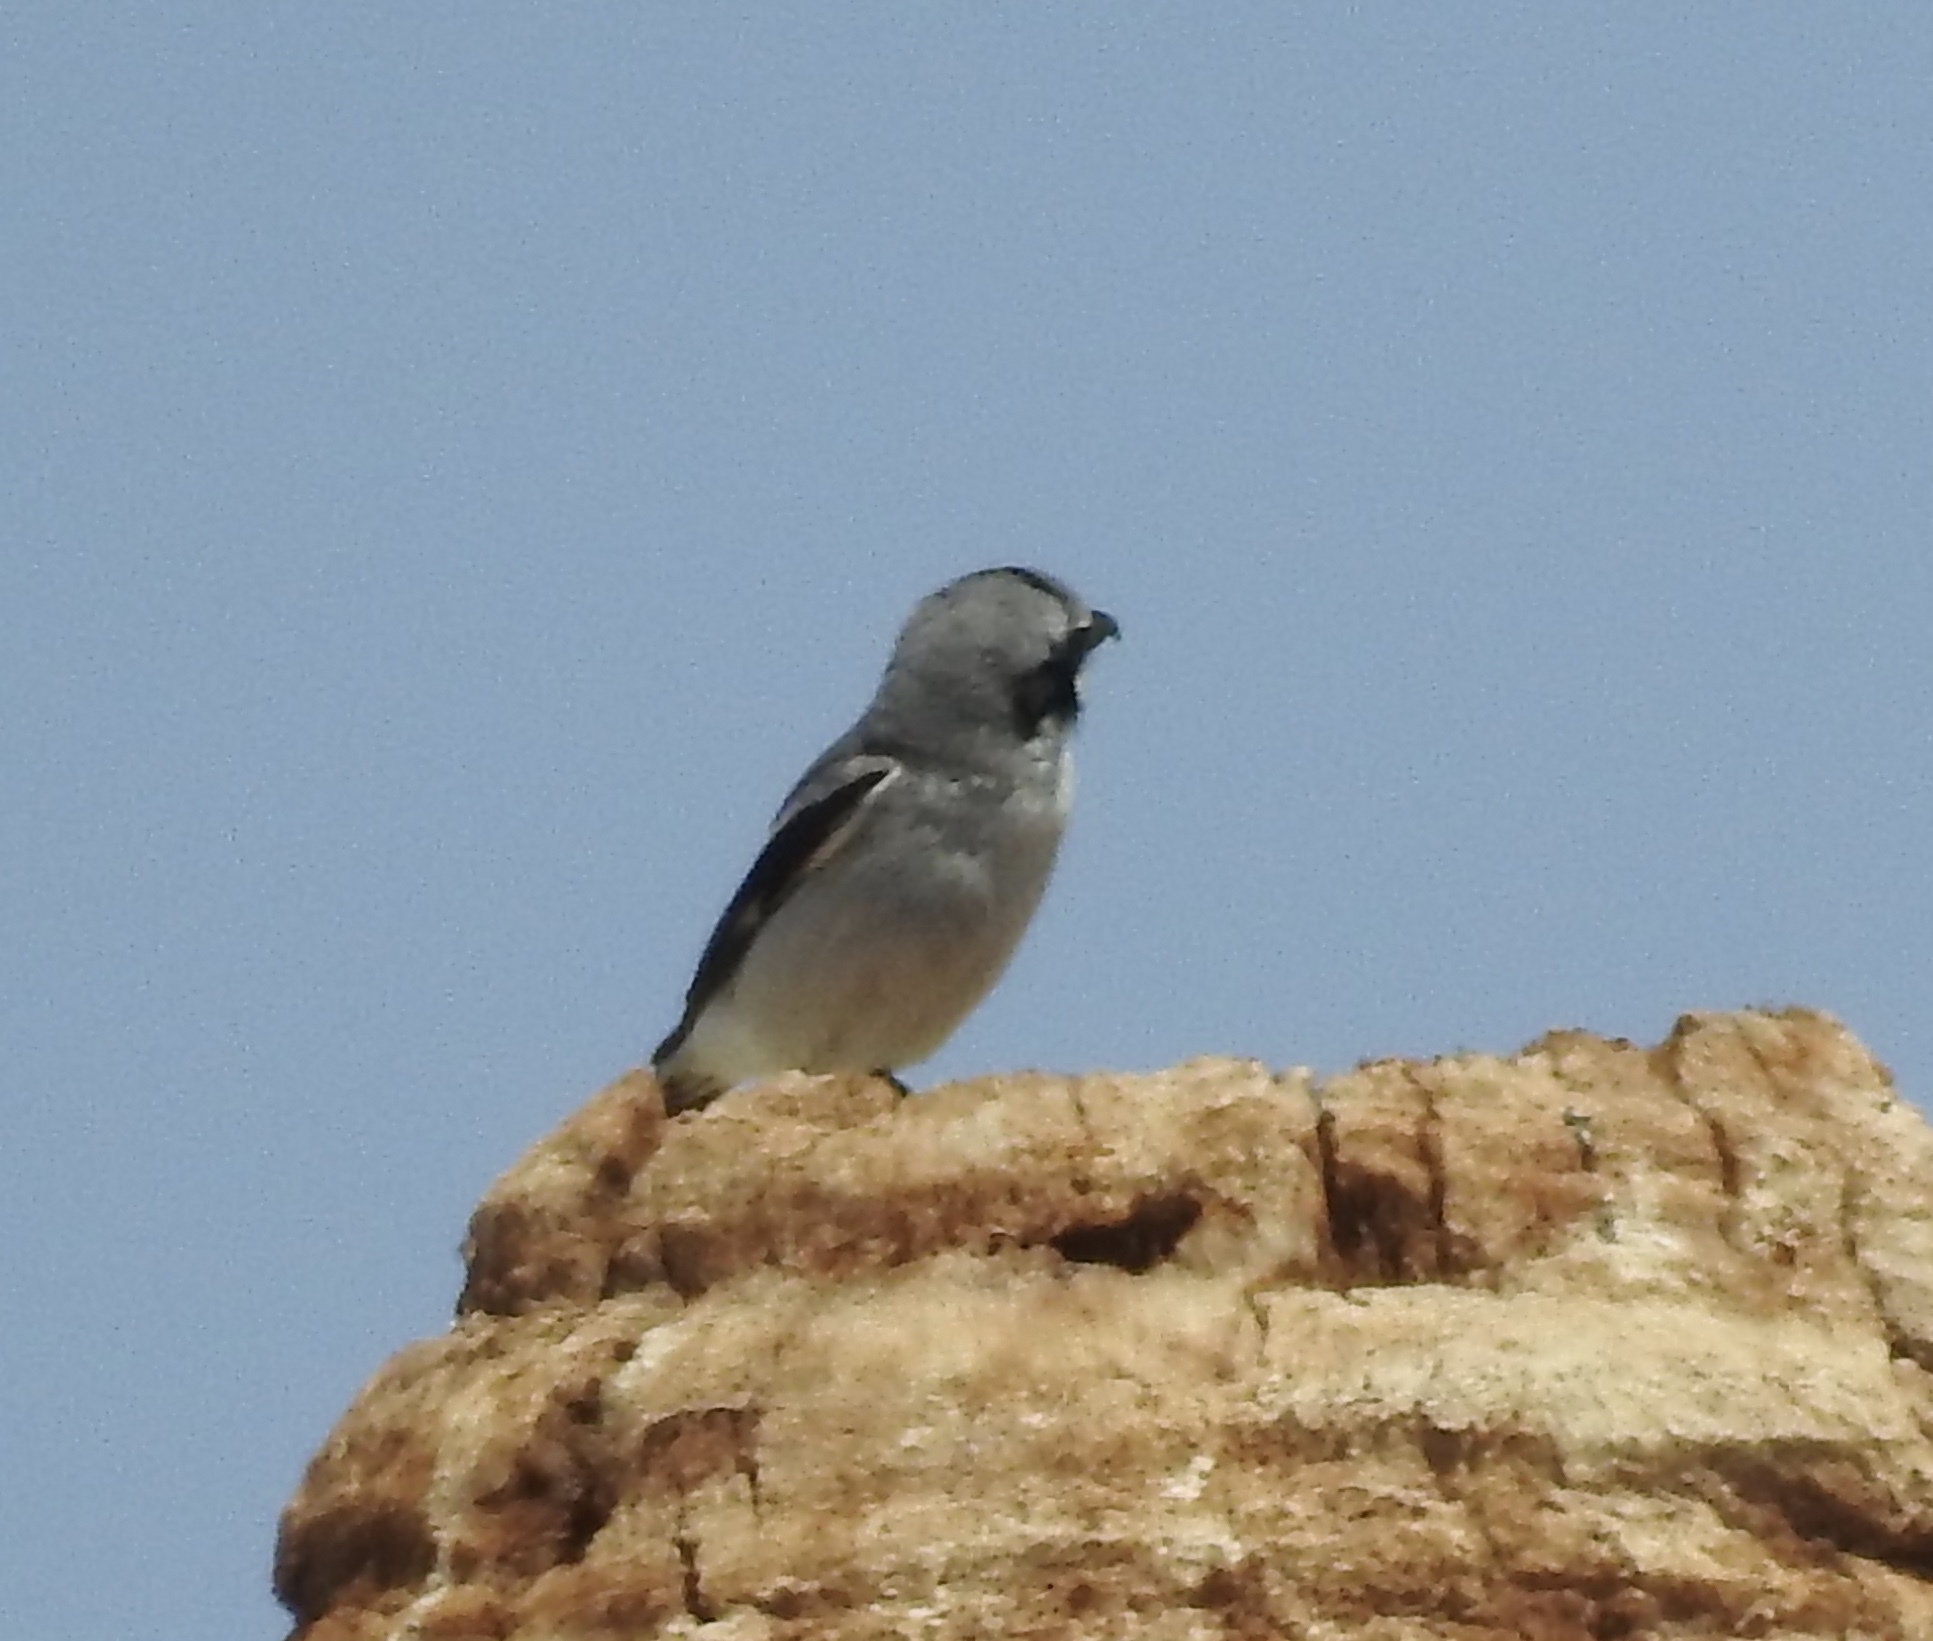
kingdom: Animalia
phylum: Chordata
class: Aves
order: Passeriformes
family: Laniidae
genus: Lanius
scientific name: Lanius ludovicianus
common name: Loggerhead shrike
